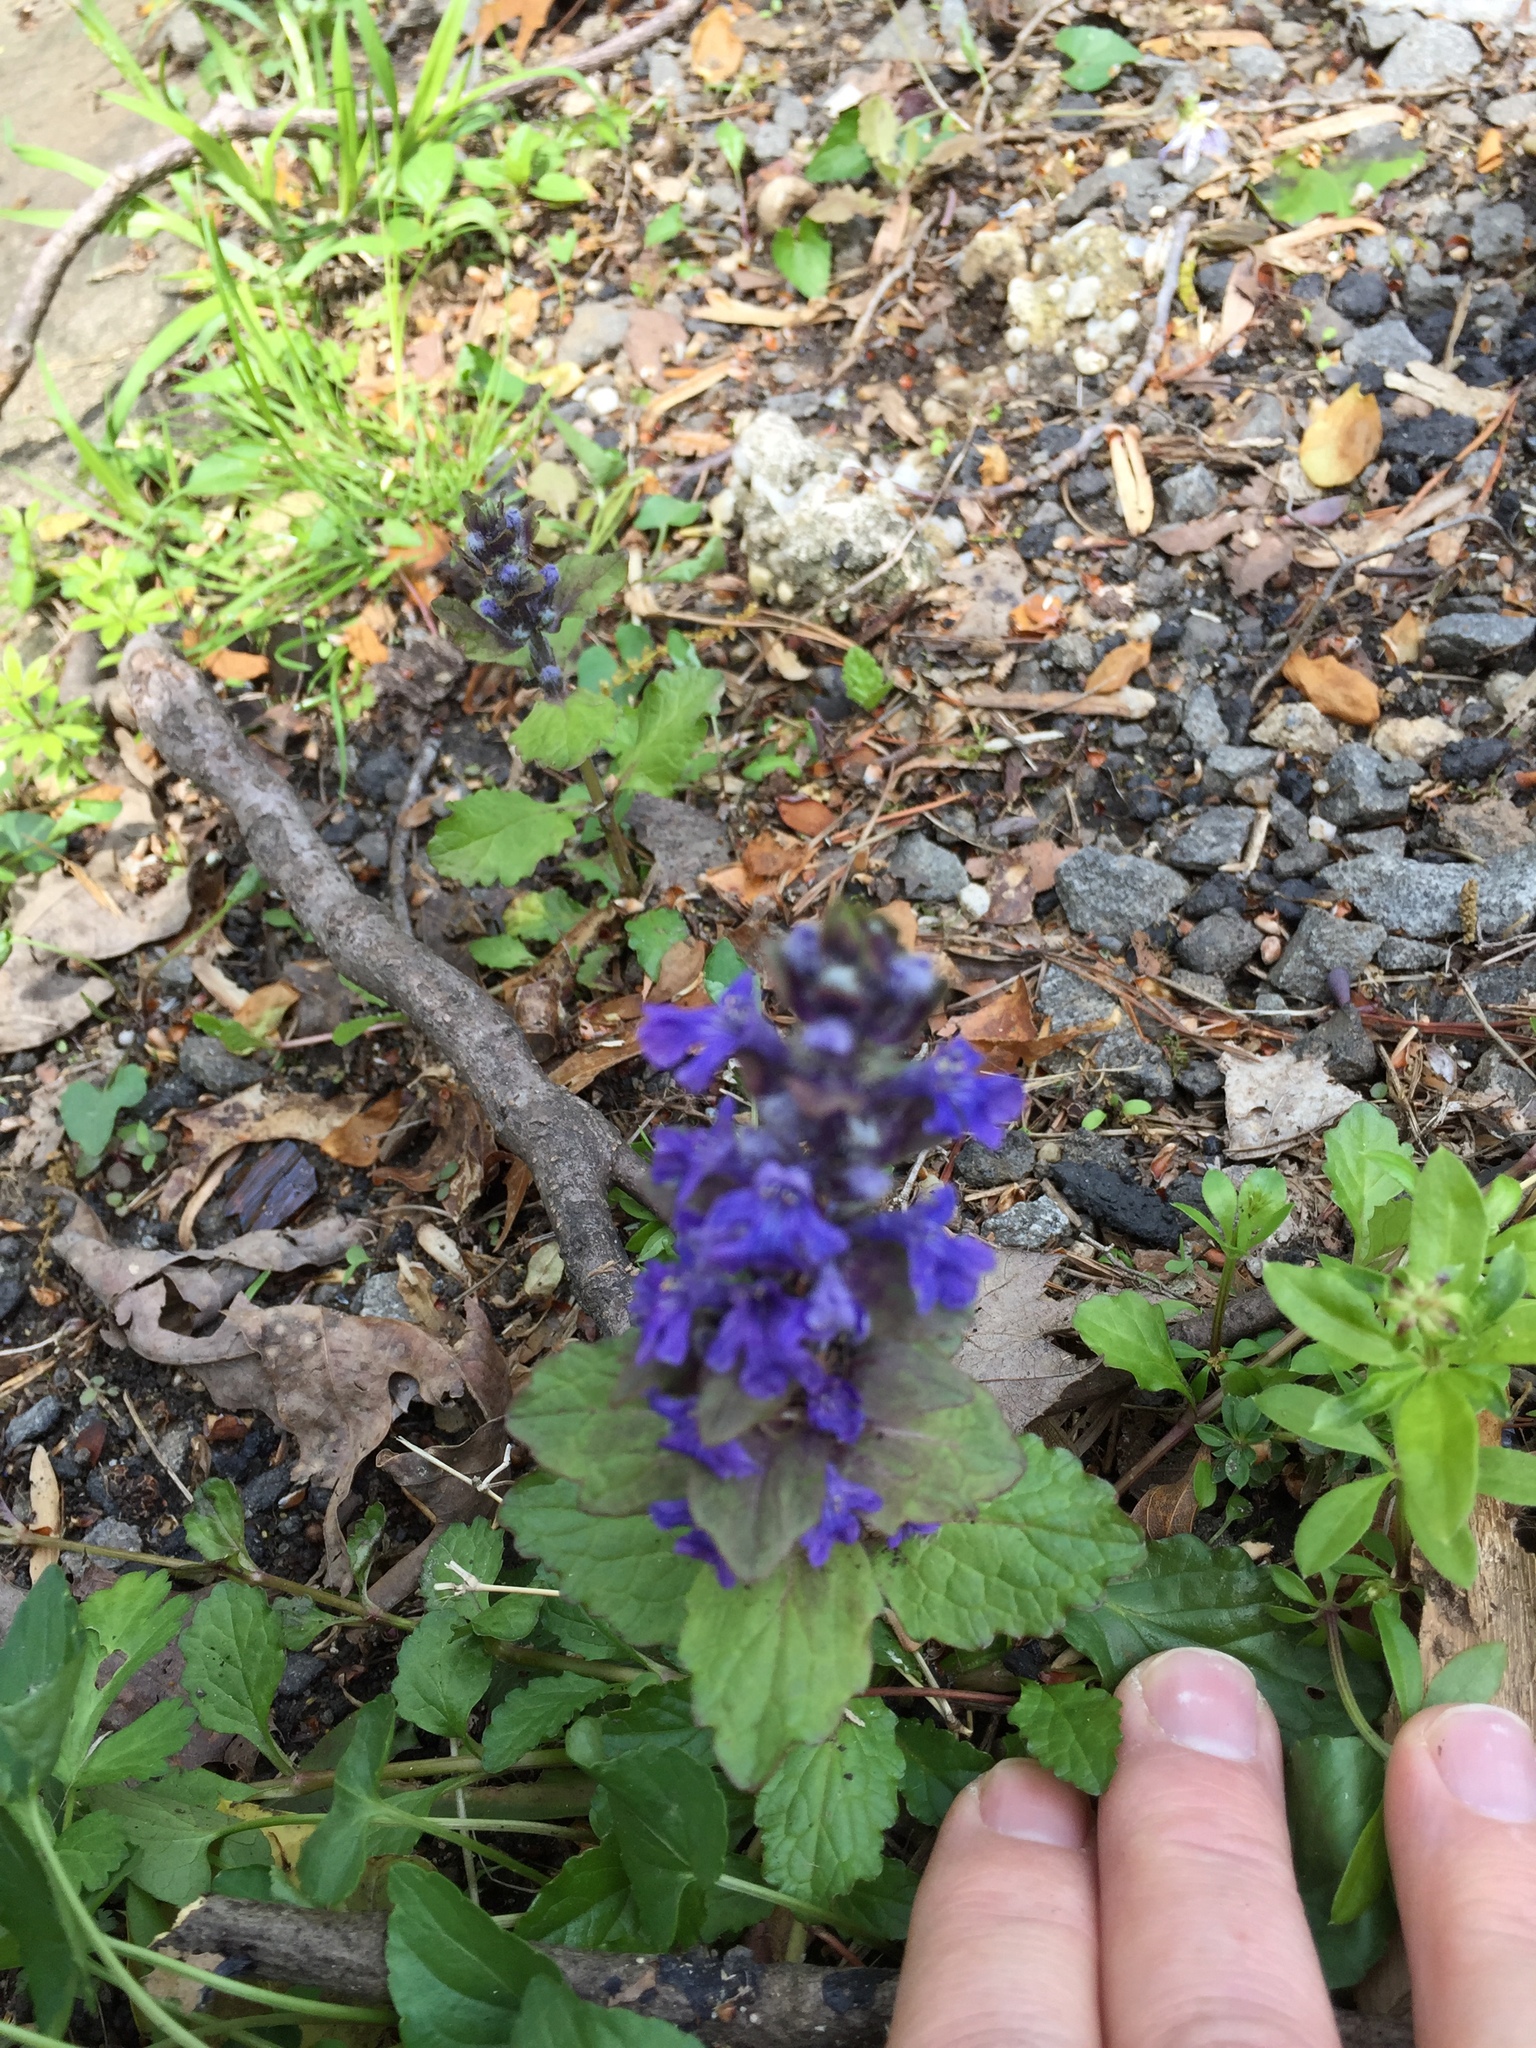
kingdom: Plantae
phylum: Tracheophyta
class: Magnoliopsida
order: Lamiales
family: Lamiaceae
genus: Ajuga
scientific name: Ajuga reptans
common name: Bugle
